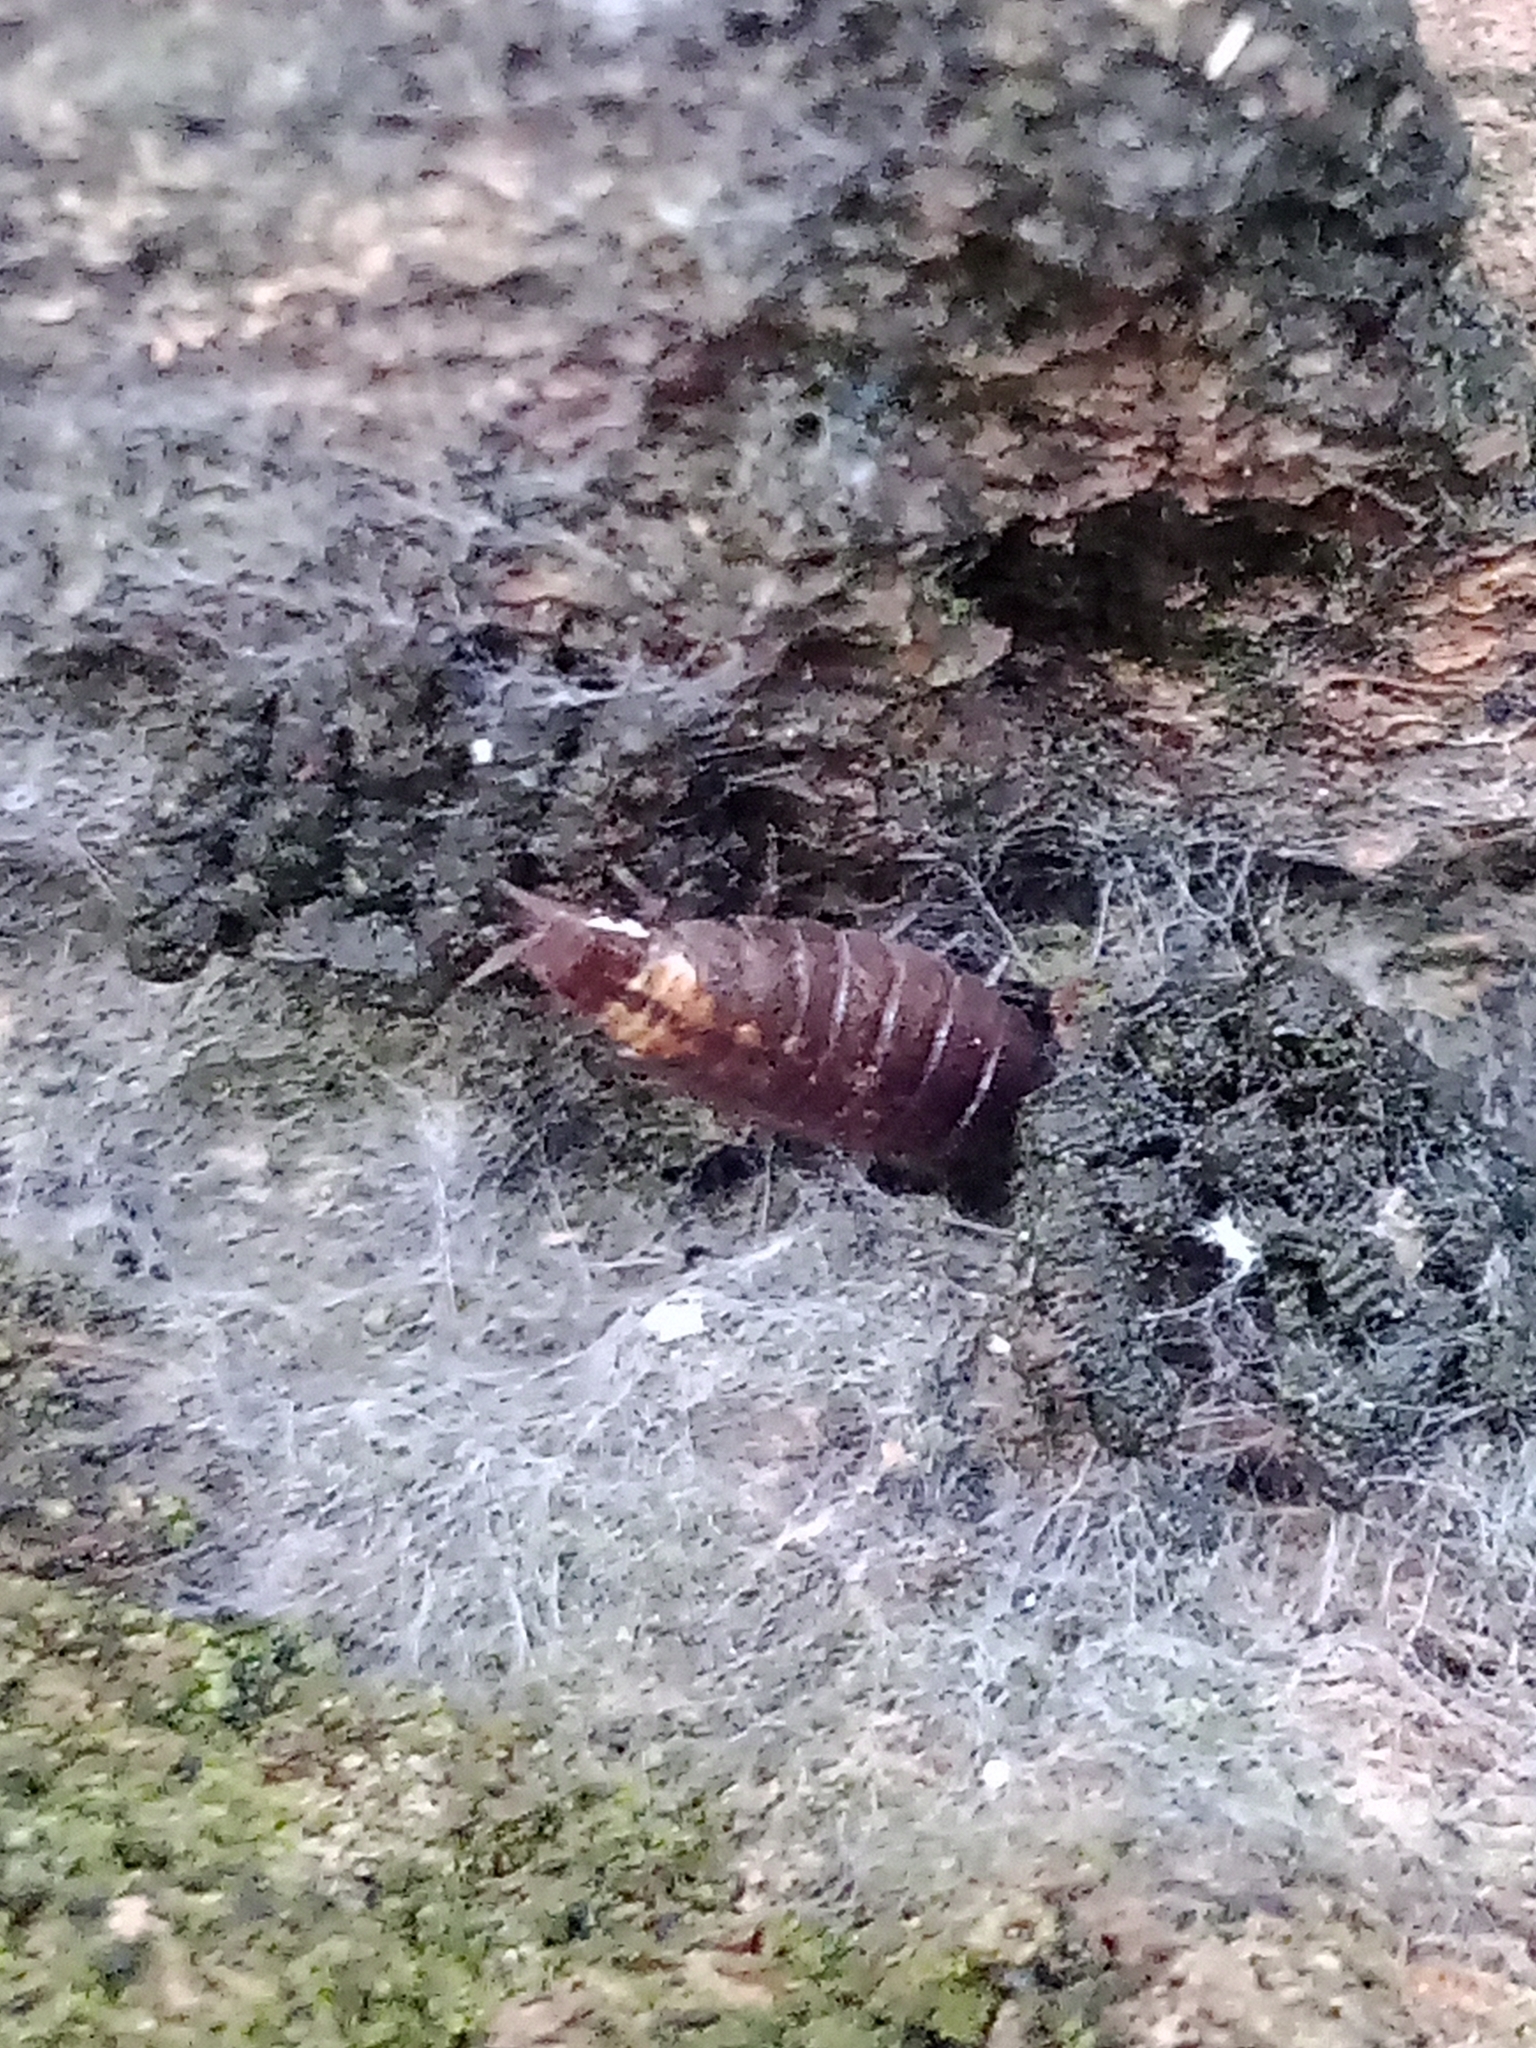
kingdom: Animalia
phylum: Arthropoda
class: Malacostraca
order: Isopoda
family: Trichoniscidae
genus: Hyloniscus
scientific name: Hyloniscus riparius
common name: Isopod
